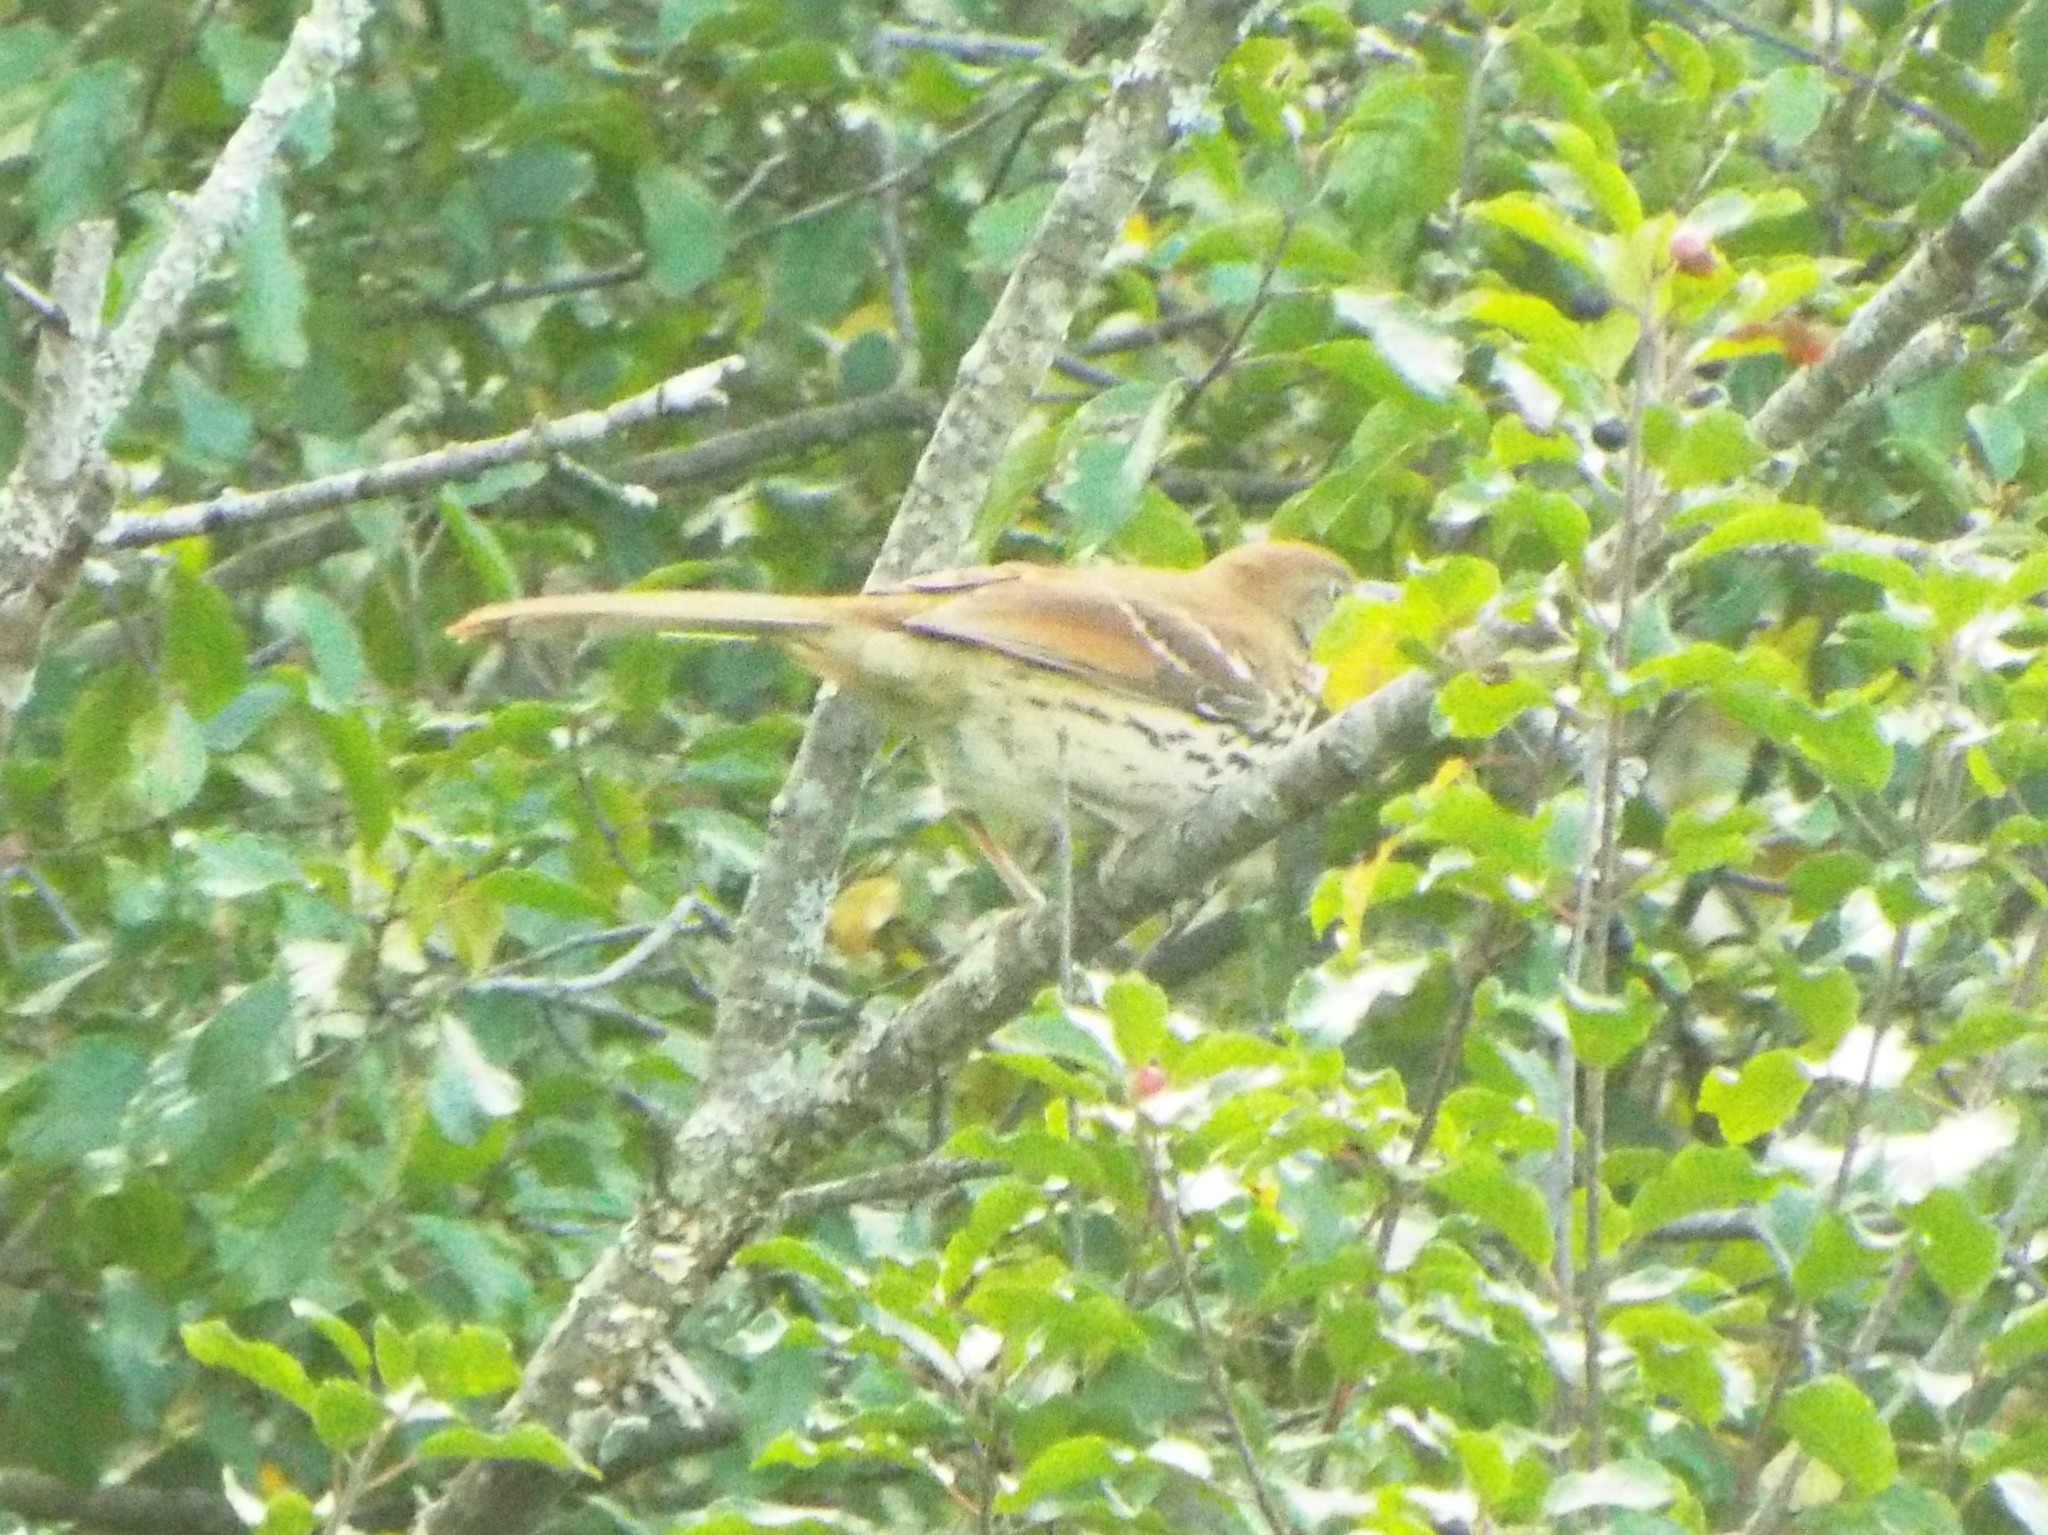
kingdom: Animalia
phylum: Chordata
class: Aves
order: Passeriformes
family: Mimidae
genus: Toxostoma
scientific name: Toxostoma rufum
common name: Brown thrasher
